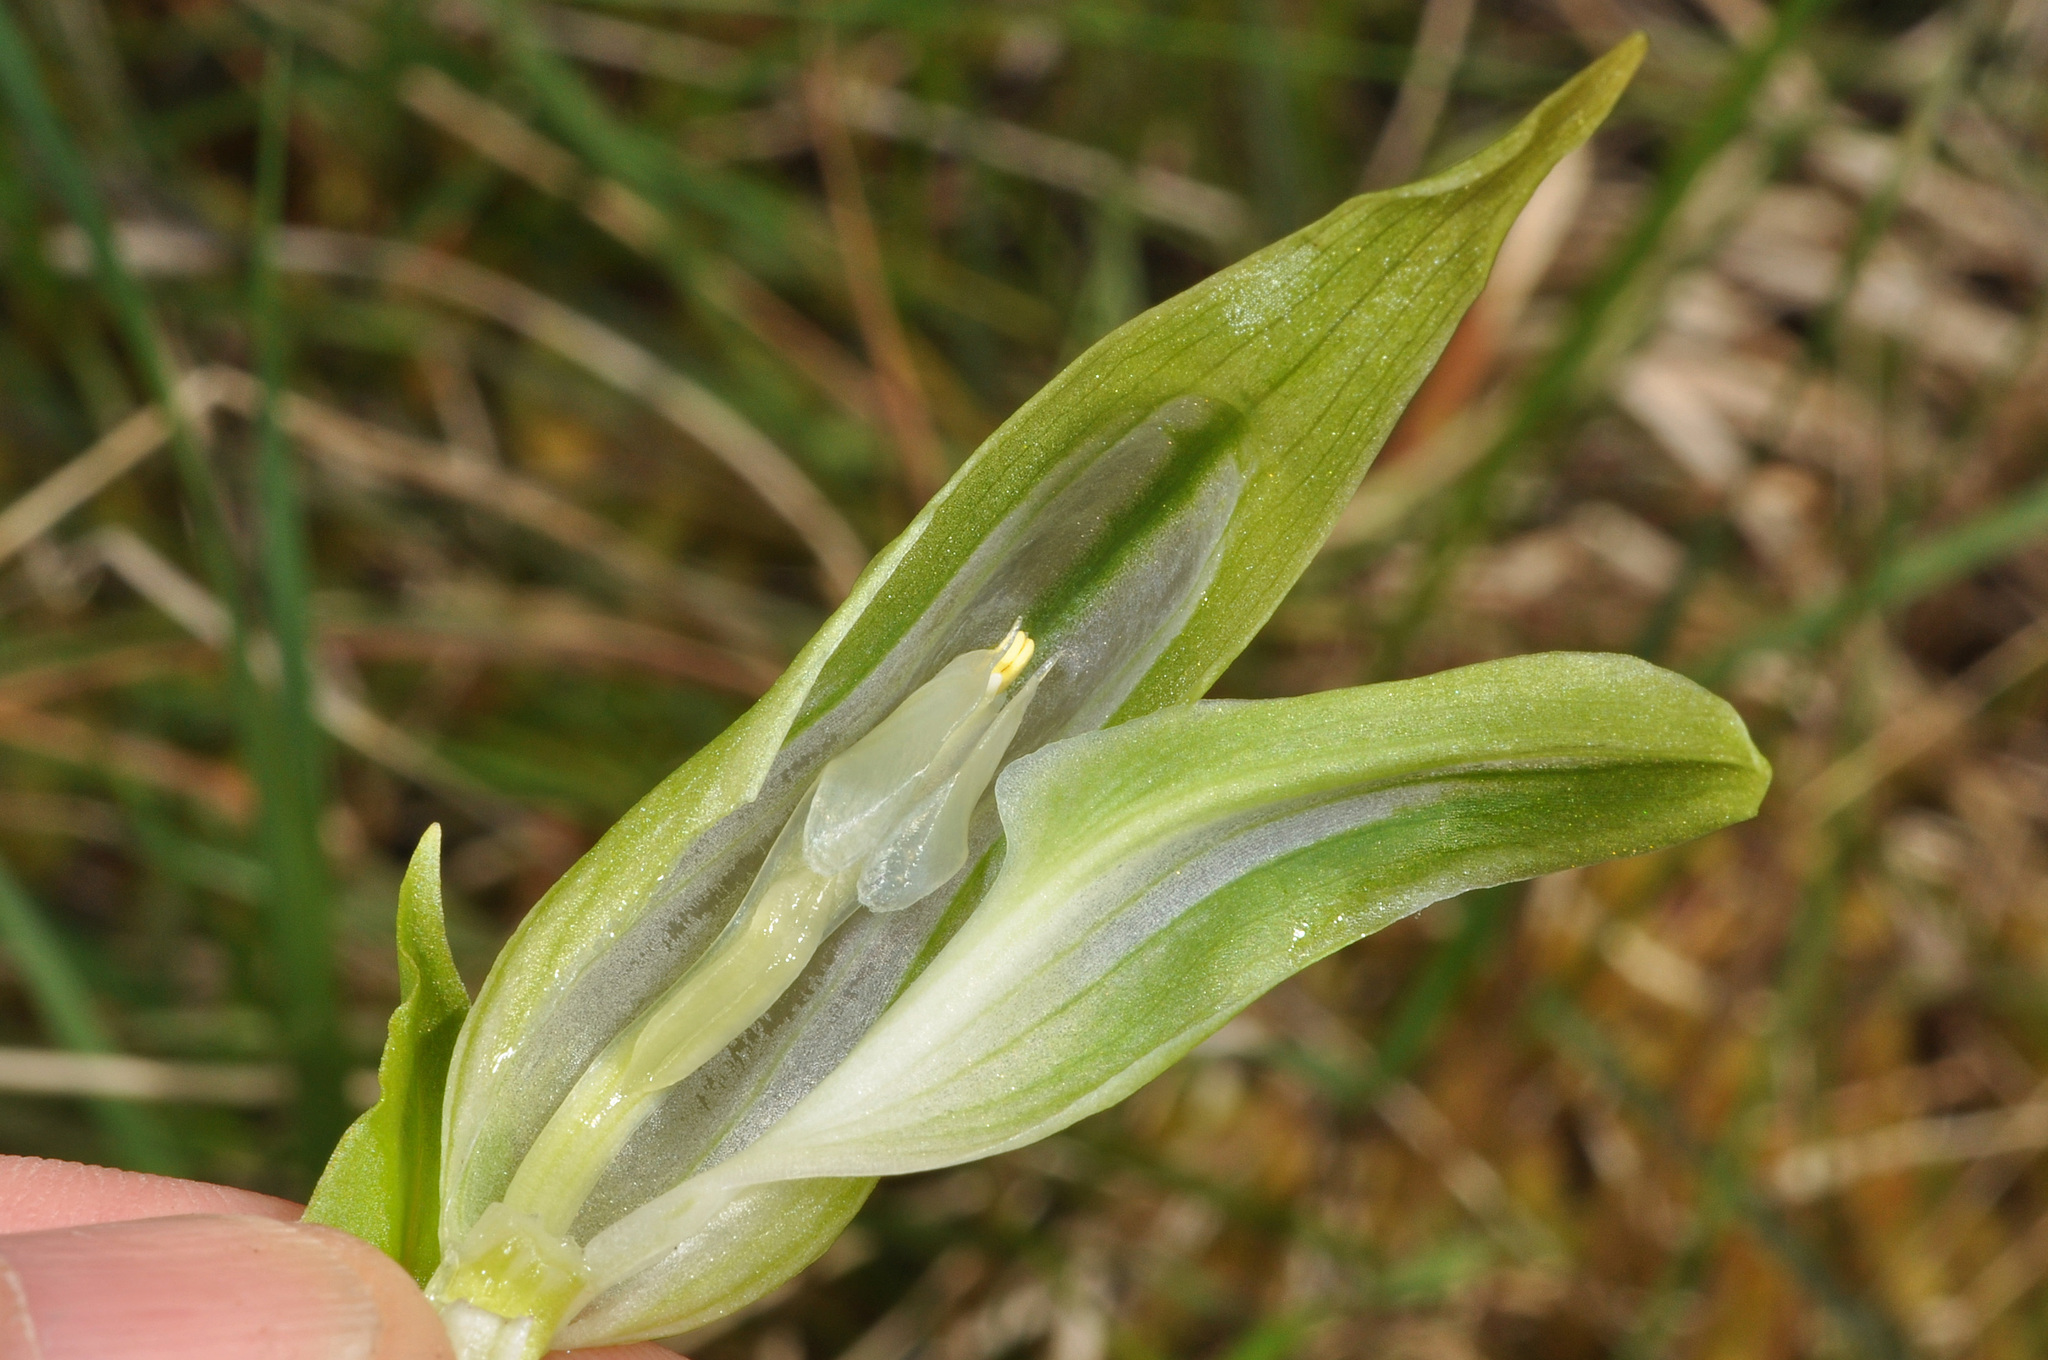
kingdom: Plantae
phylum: Tracheophyta
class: Liliopsida
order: Asparagales
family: Orchidaceae
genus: Pterostylis
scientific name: Pterostylis australis
